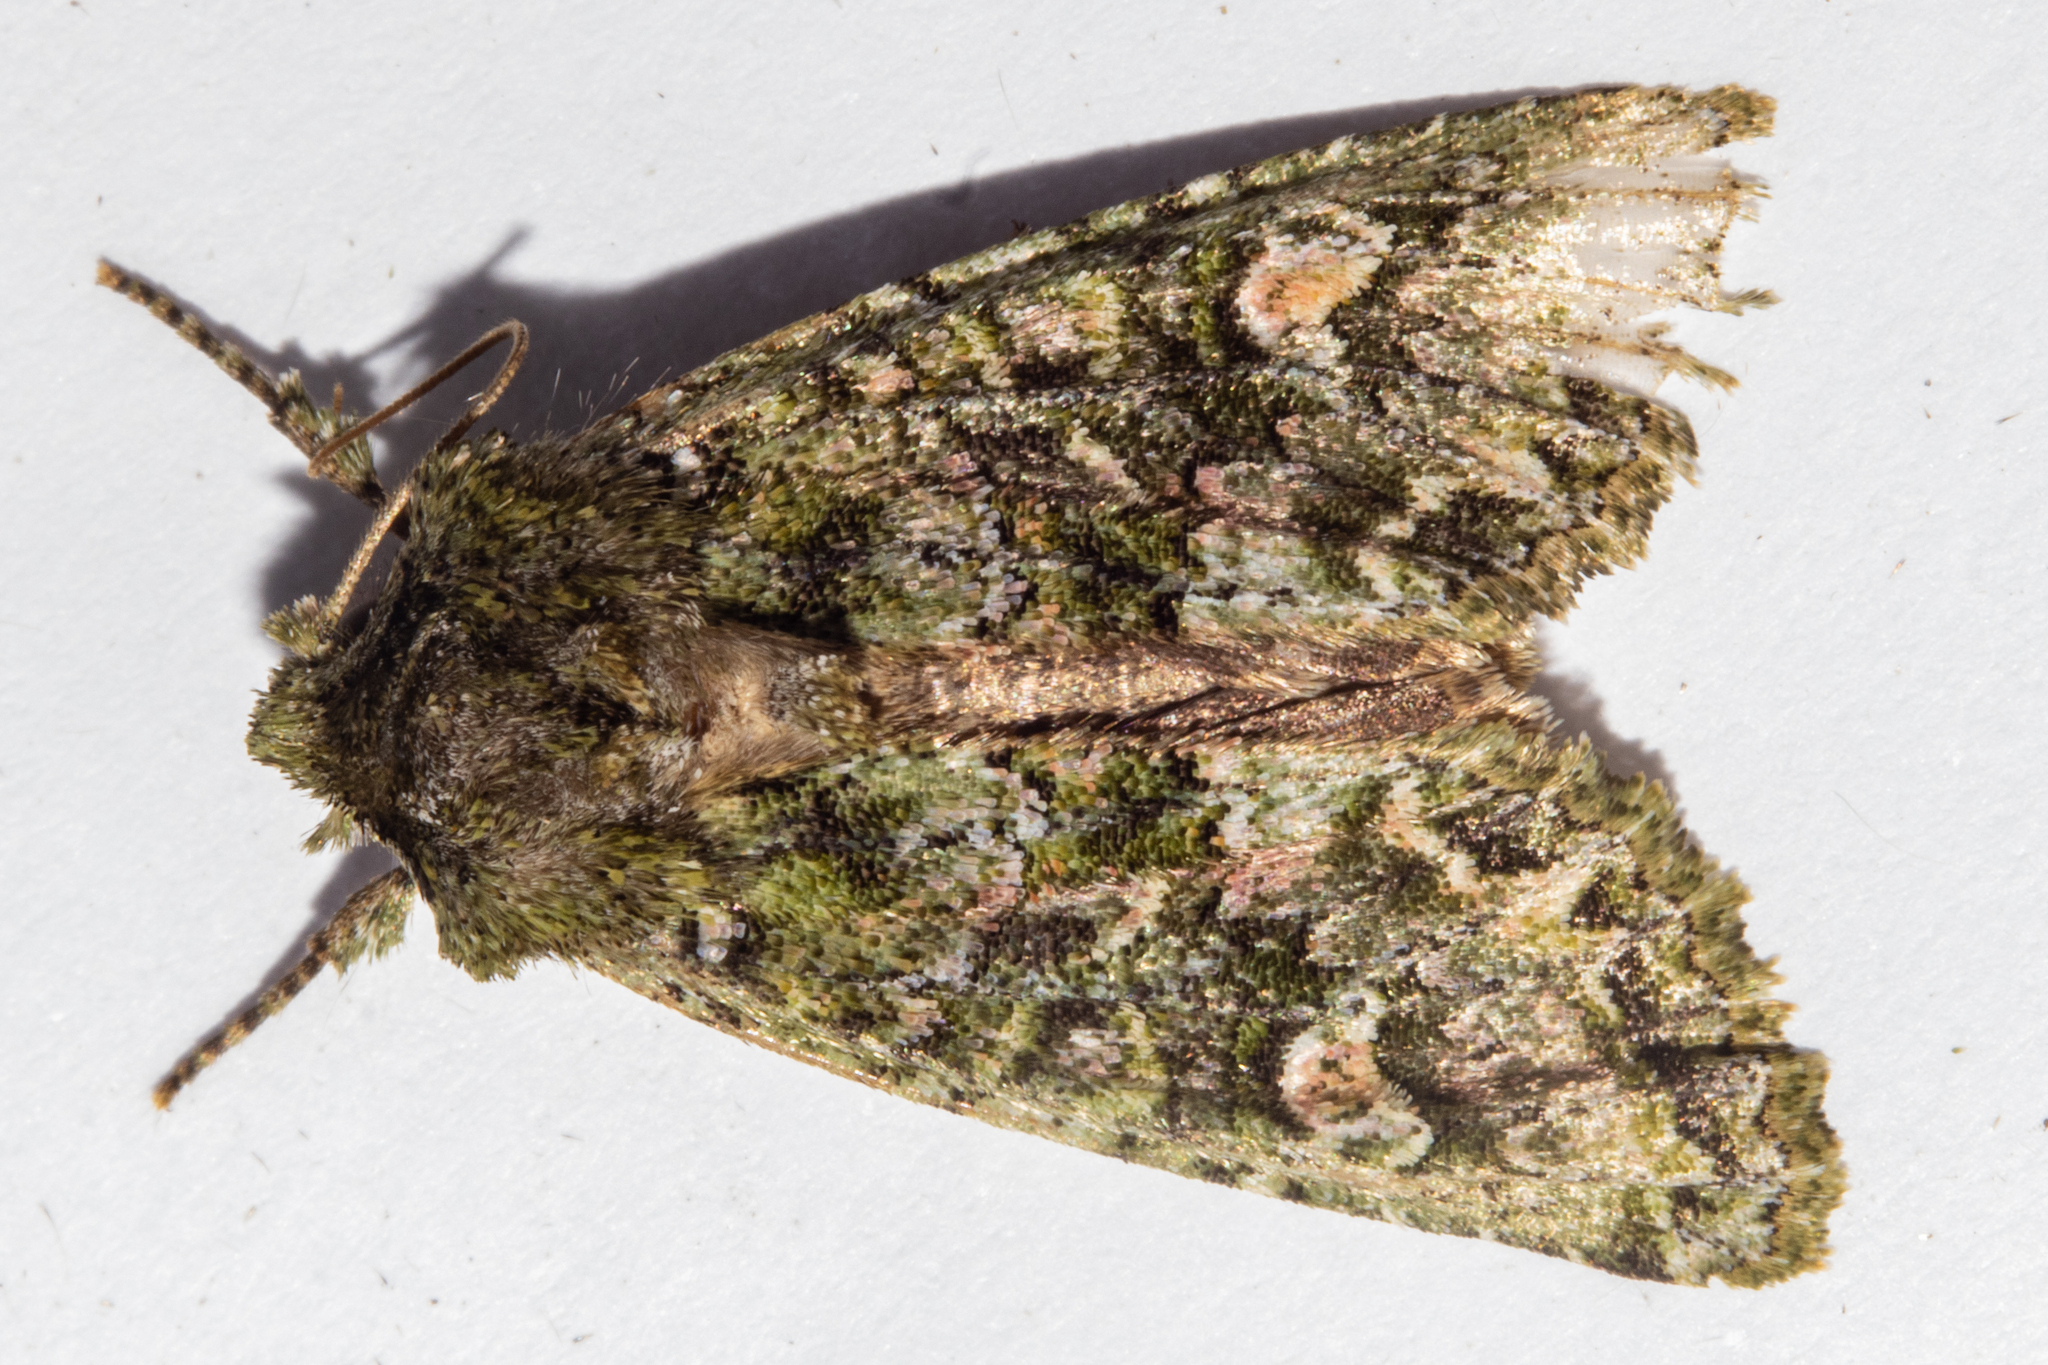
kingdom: Animalia
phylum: Arthropoda
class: Insecta
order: Lepidoptera
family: Noctuidae
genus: Ichneutica
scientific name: Ichneutica
